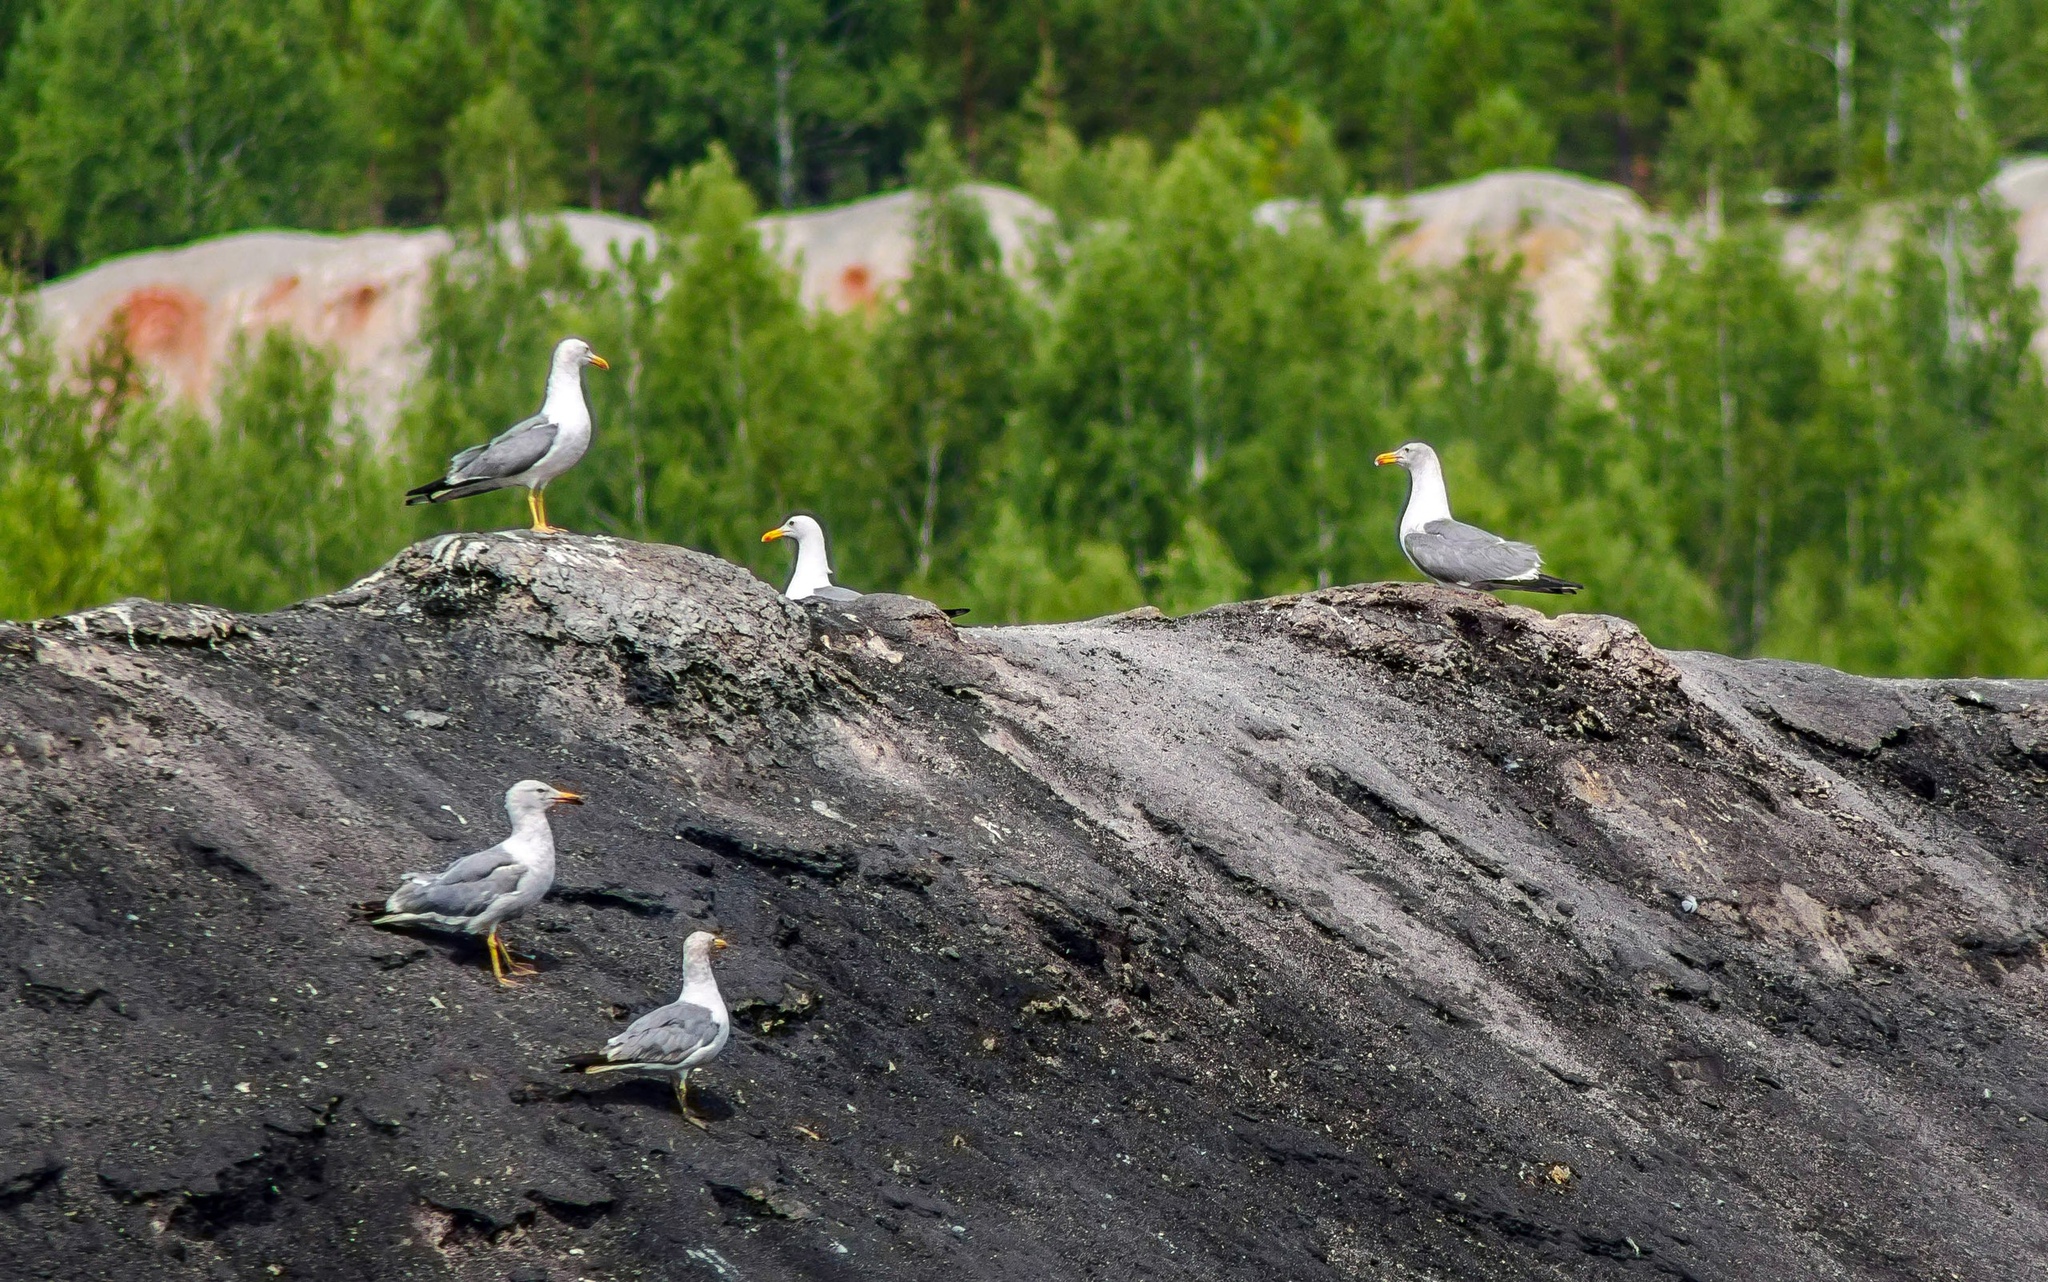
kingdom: Animalia
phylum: Chordata
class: Aves
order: Charadriiformes
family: Laridae
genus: Larus
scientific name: Larus fuscus
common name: Lesser black-backed gull
